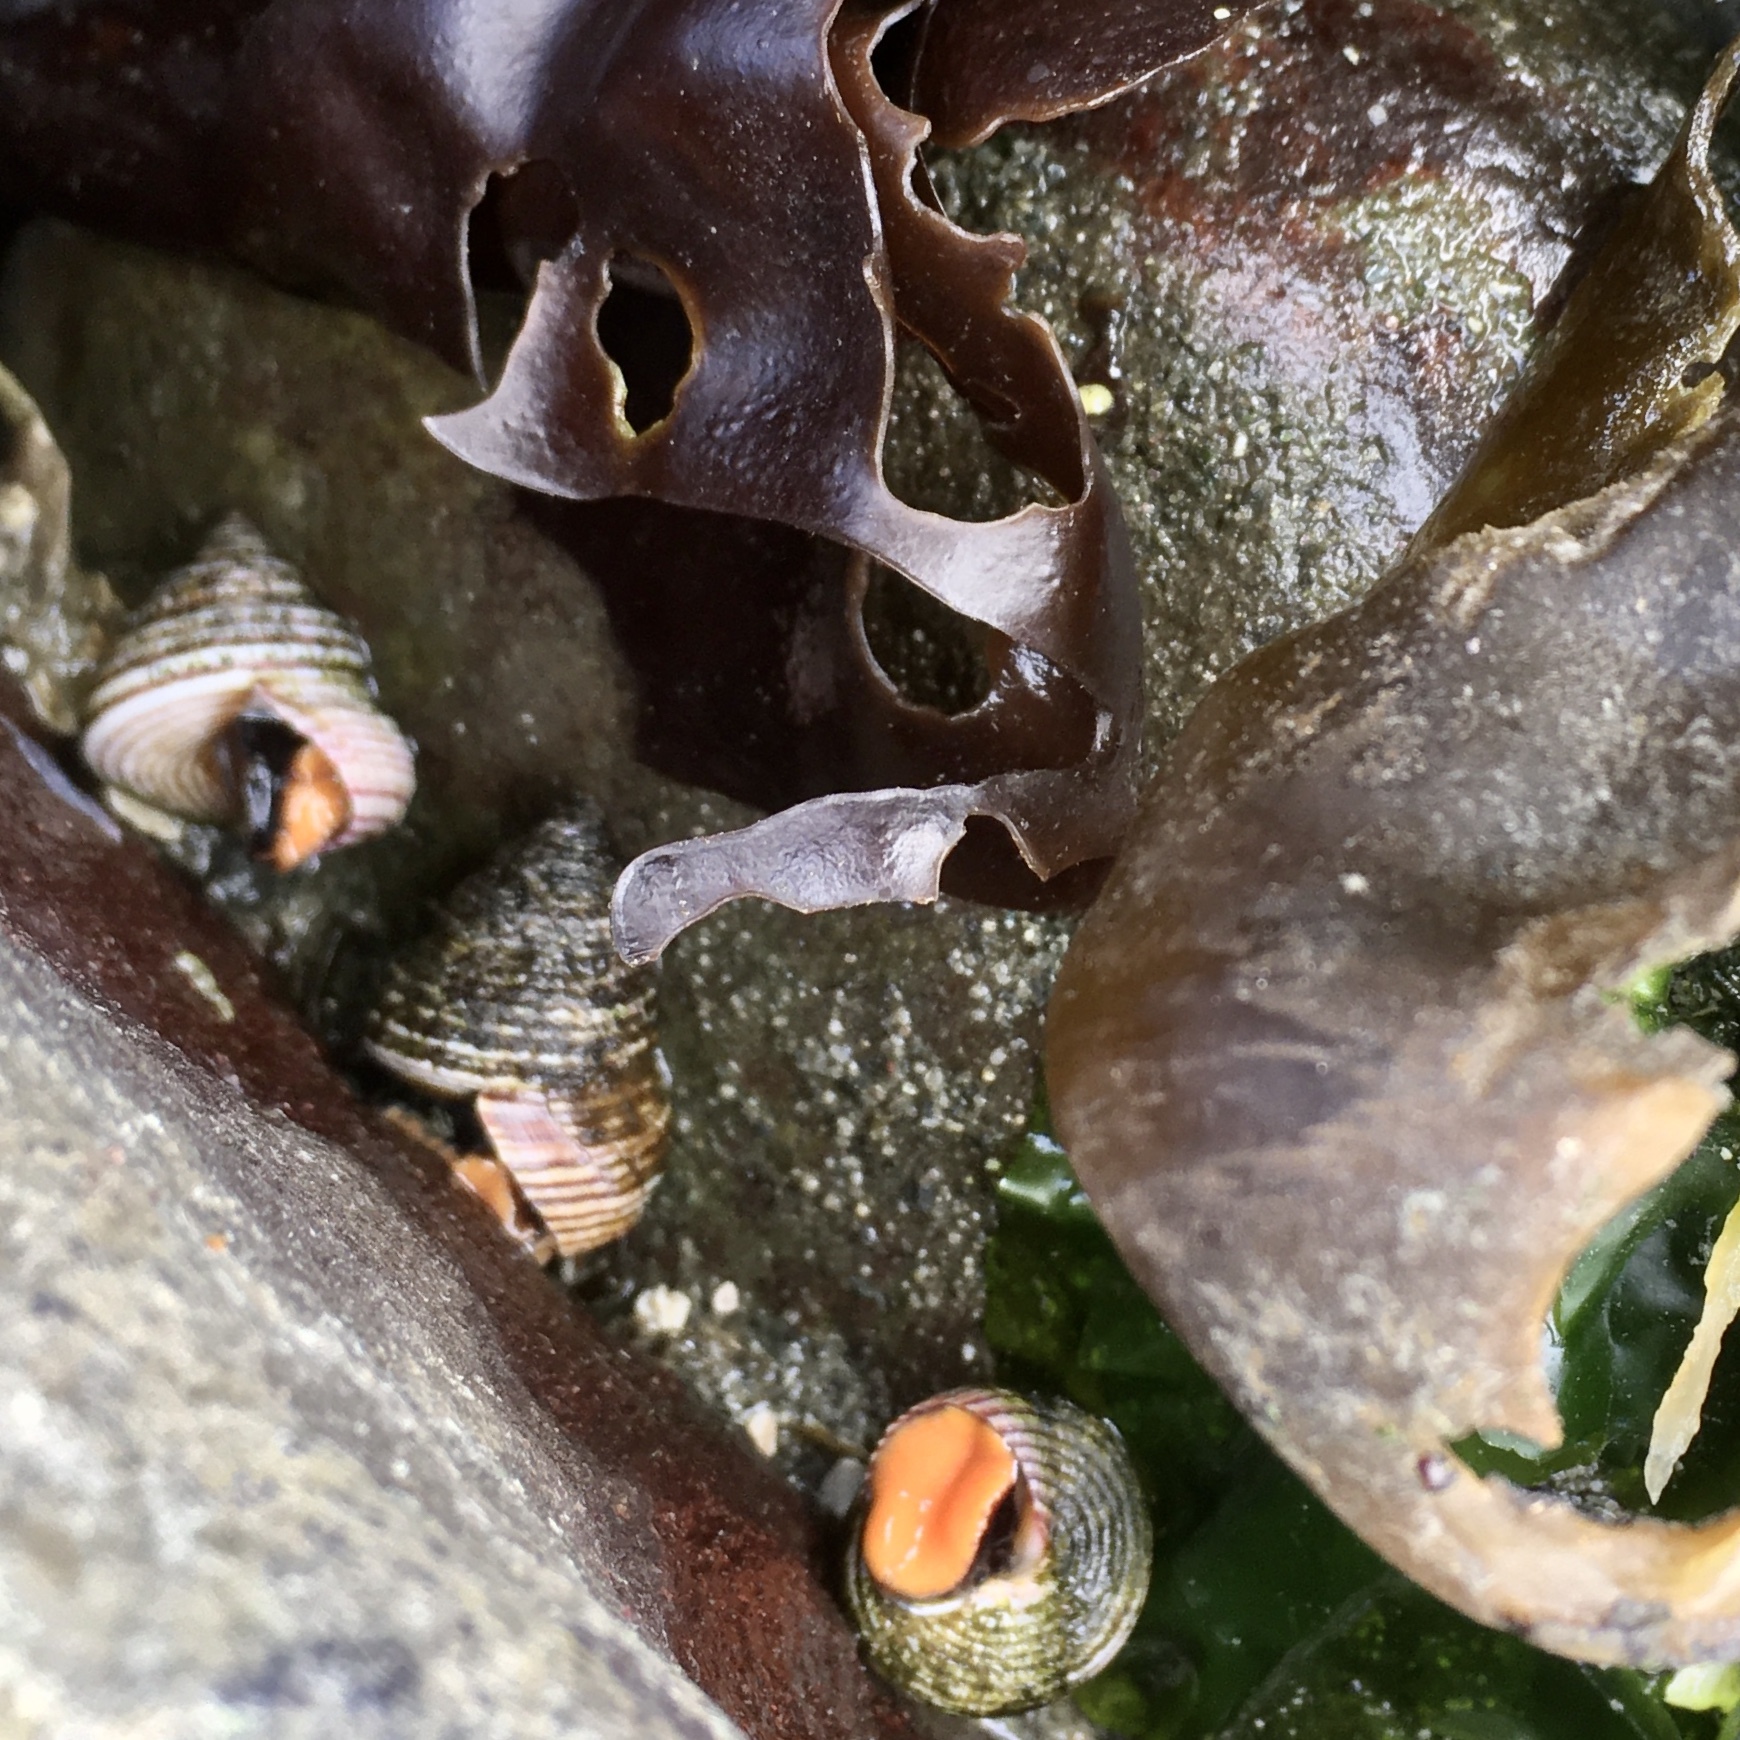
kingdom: Animalia
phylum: Mollusca
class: Gastropoda
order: Trochida
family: Calliostomatidae
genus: Calliostoma
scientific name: Calliostoma ligatum
